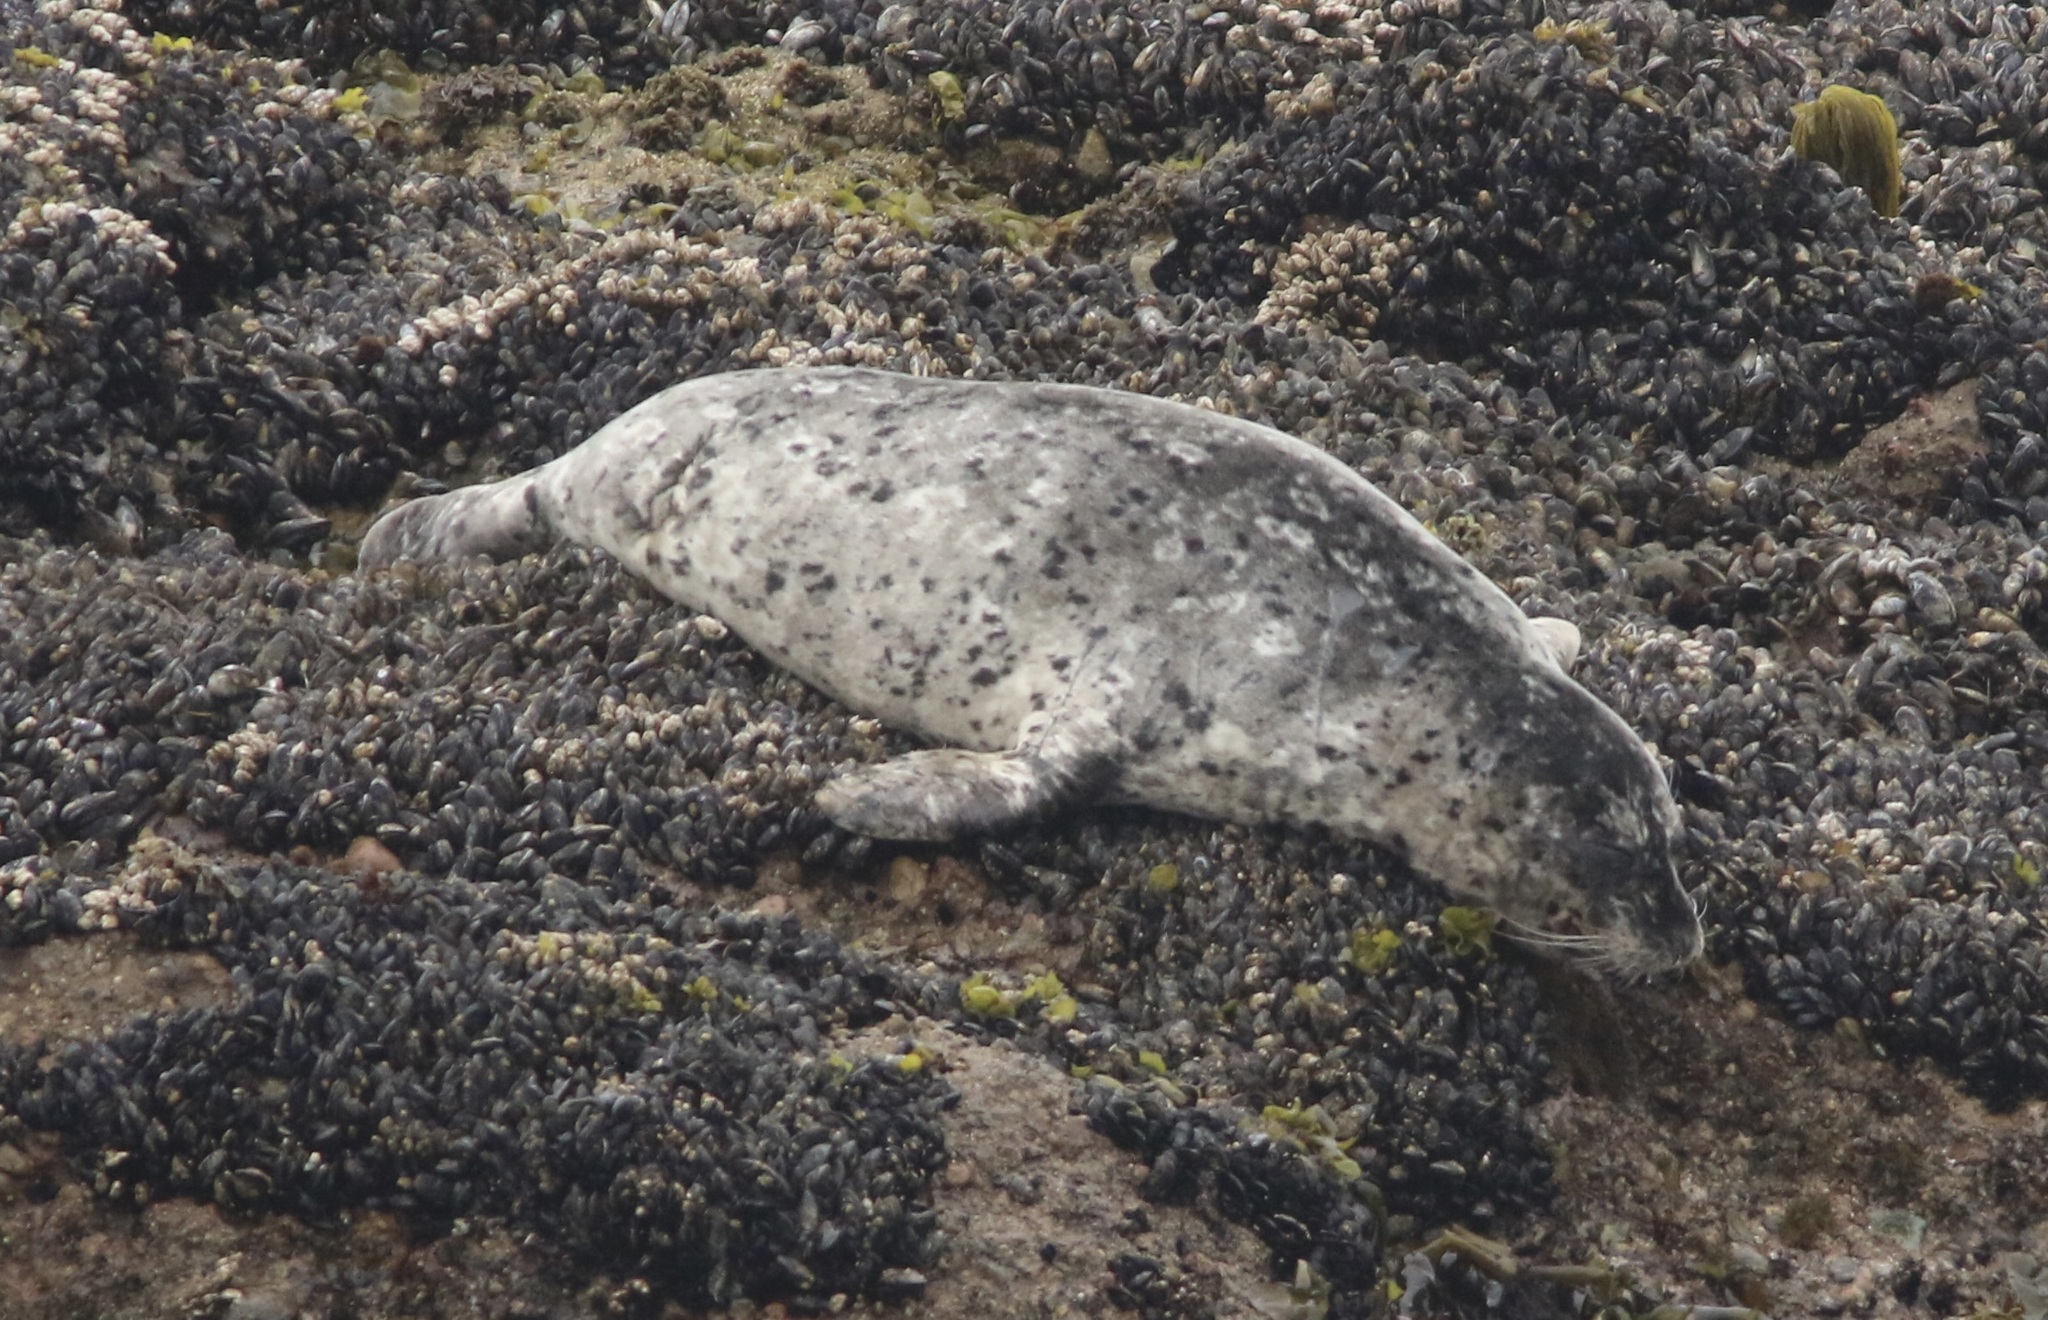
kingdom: Animalia
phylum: Chordata
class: Mammalia
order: Carnivora
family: Phocidae
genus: Phoca
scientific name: Phoca vitulina
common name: Harbor seal
